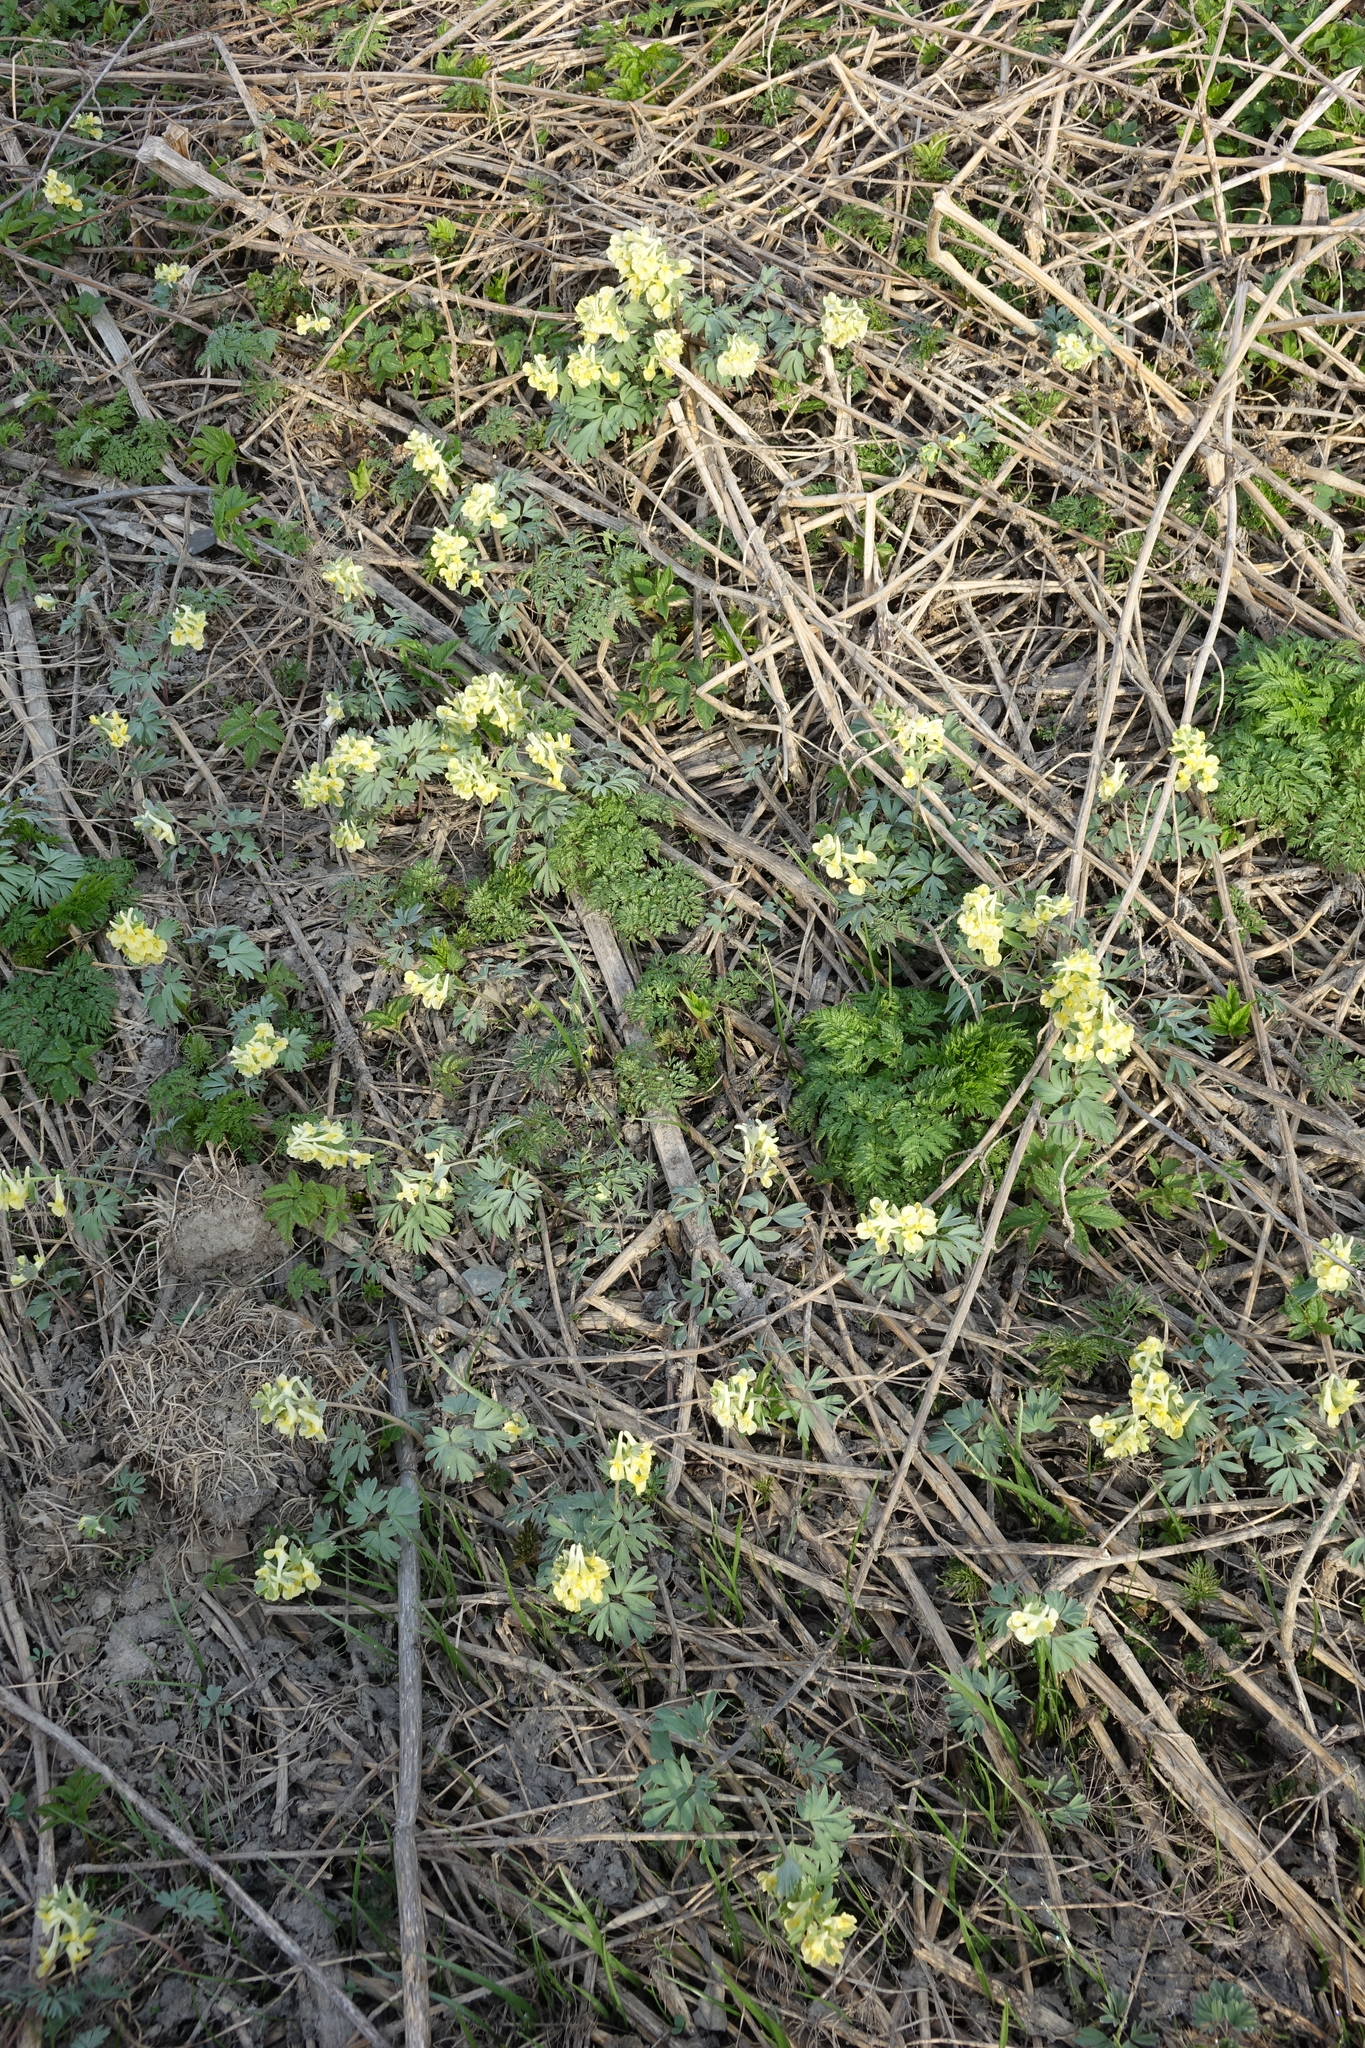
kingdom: Plantae
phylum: Tracheophyta
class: Magnoliopsida
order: Apiales
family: Apiaceae
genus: Anthriscus
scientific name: Anthriscus sylvestris
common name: Cow parsley
